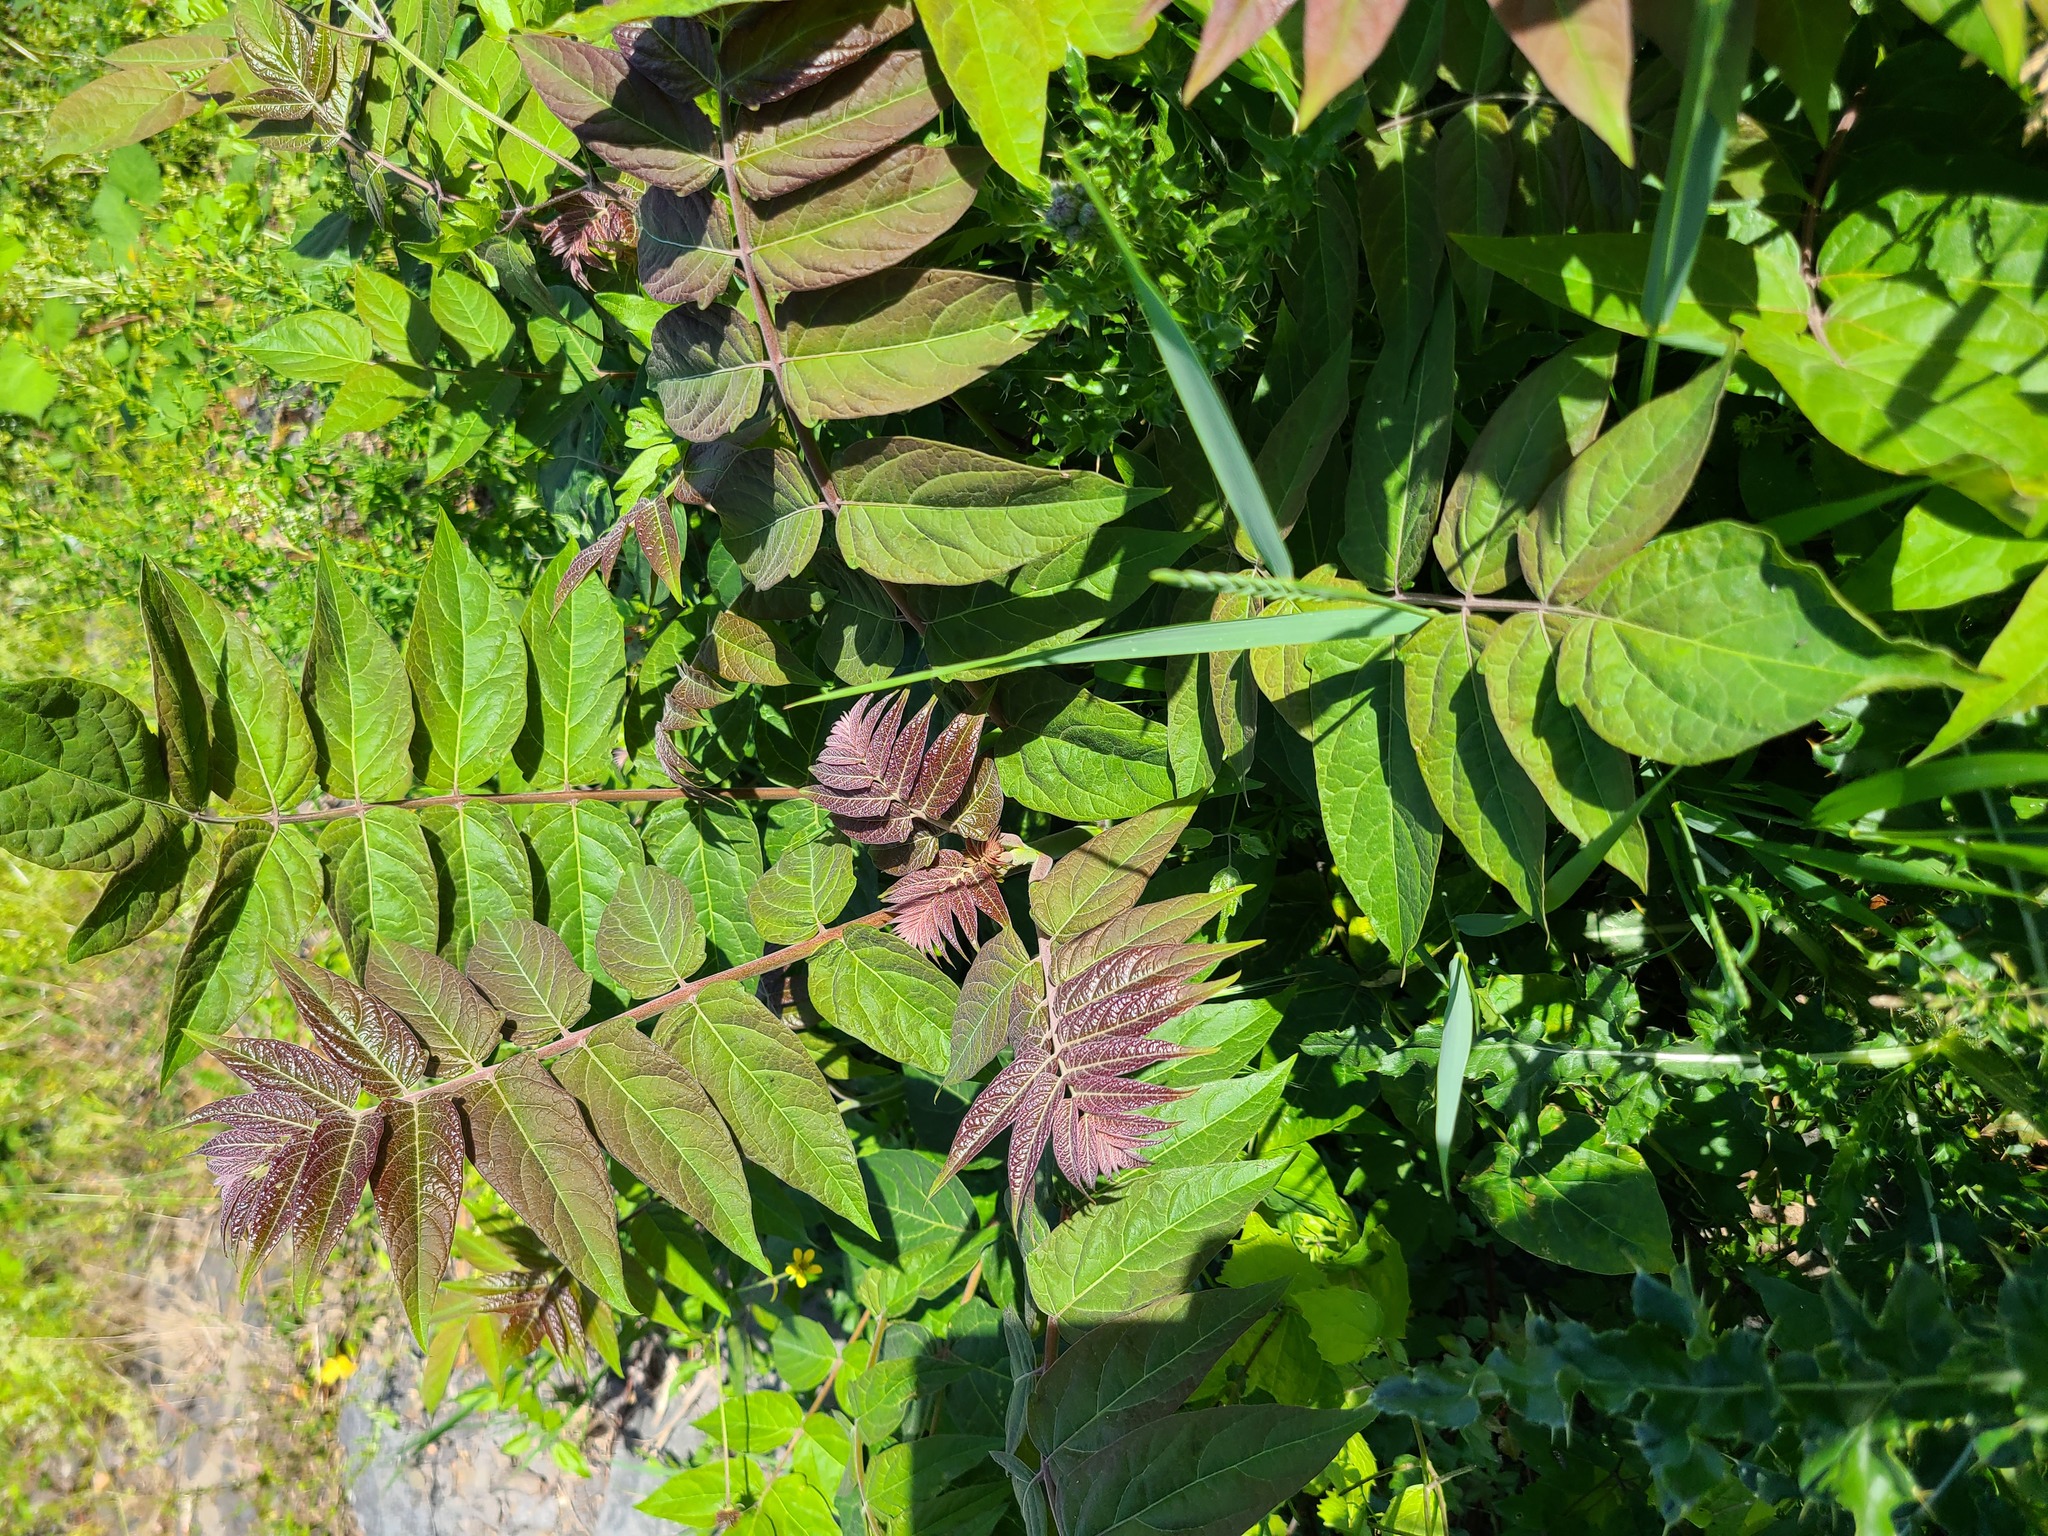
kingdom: Plantae
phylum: Tracheophyta
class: Magnoliopsida
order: Sapindales
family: Simaroubaceae
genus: Ailanthus
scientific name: Ailanthus altissima
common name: Tree-of-heaven
